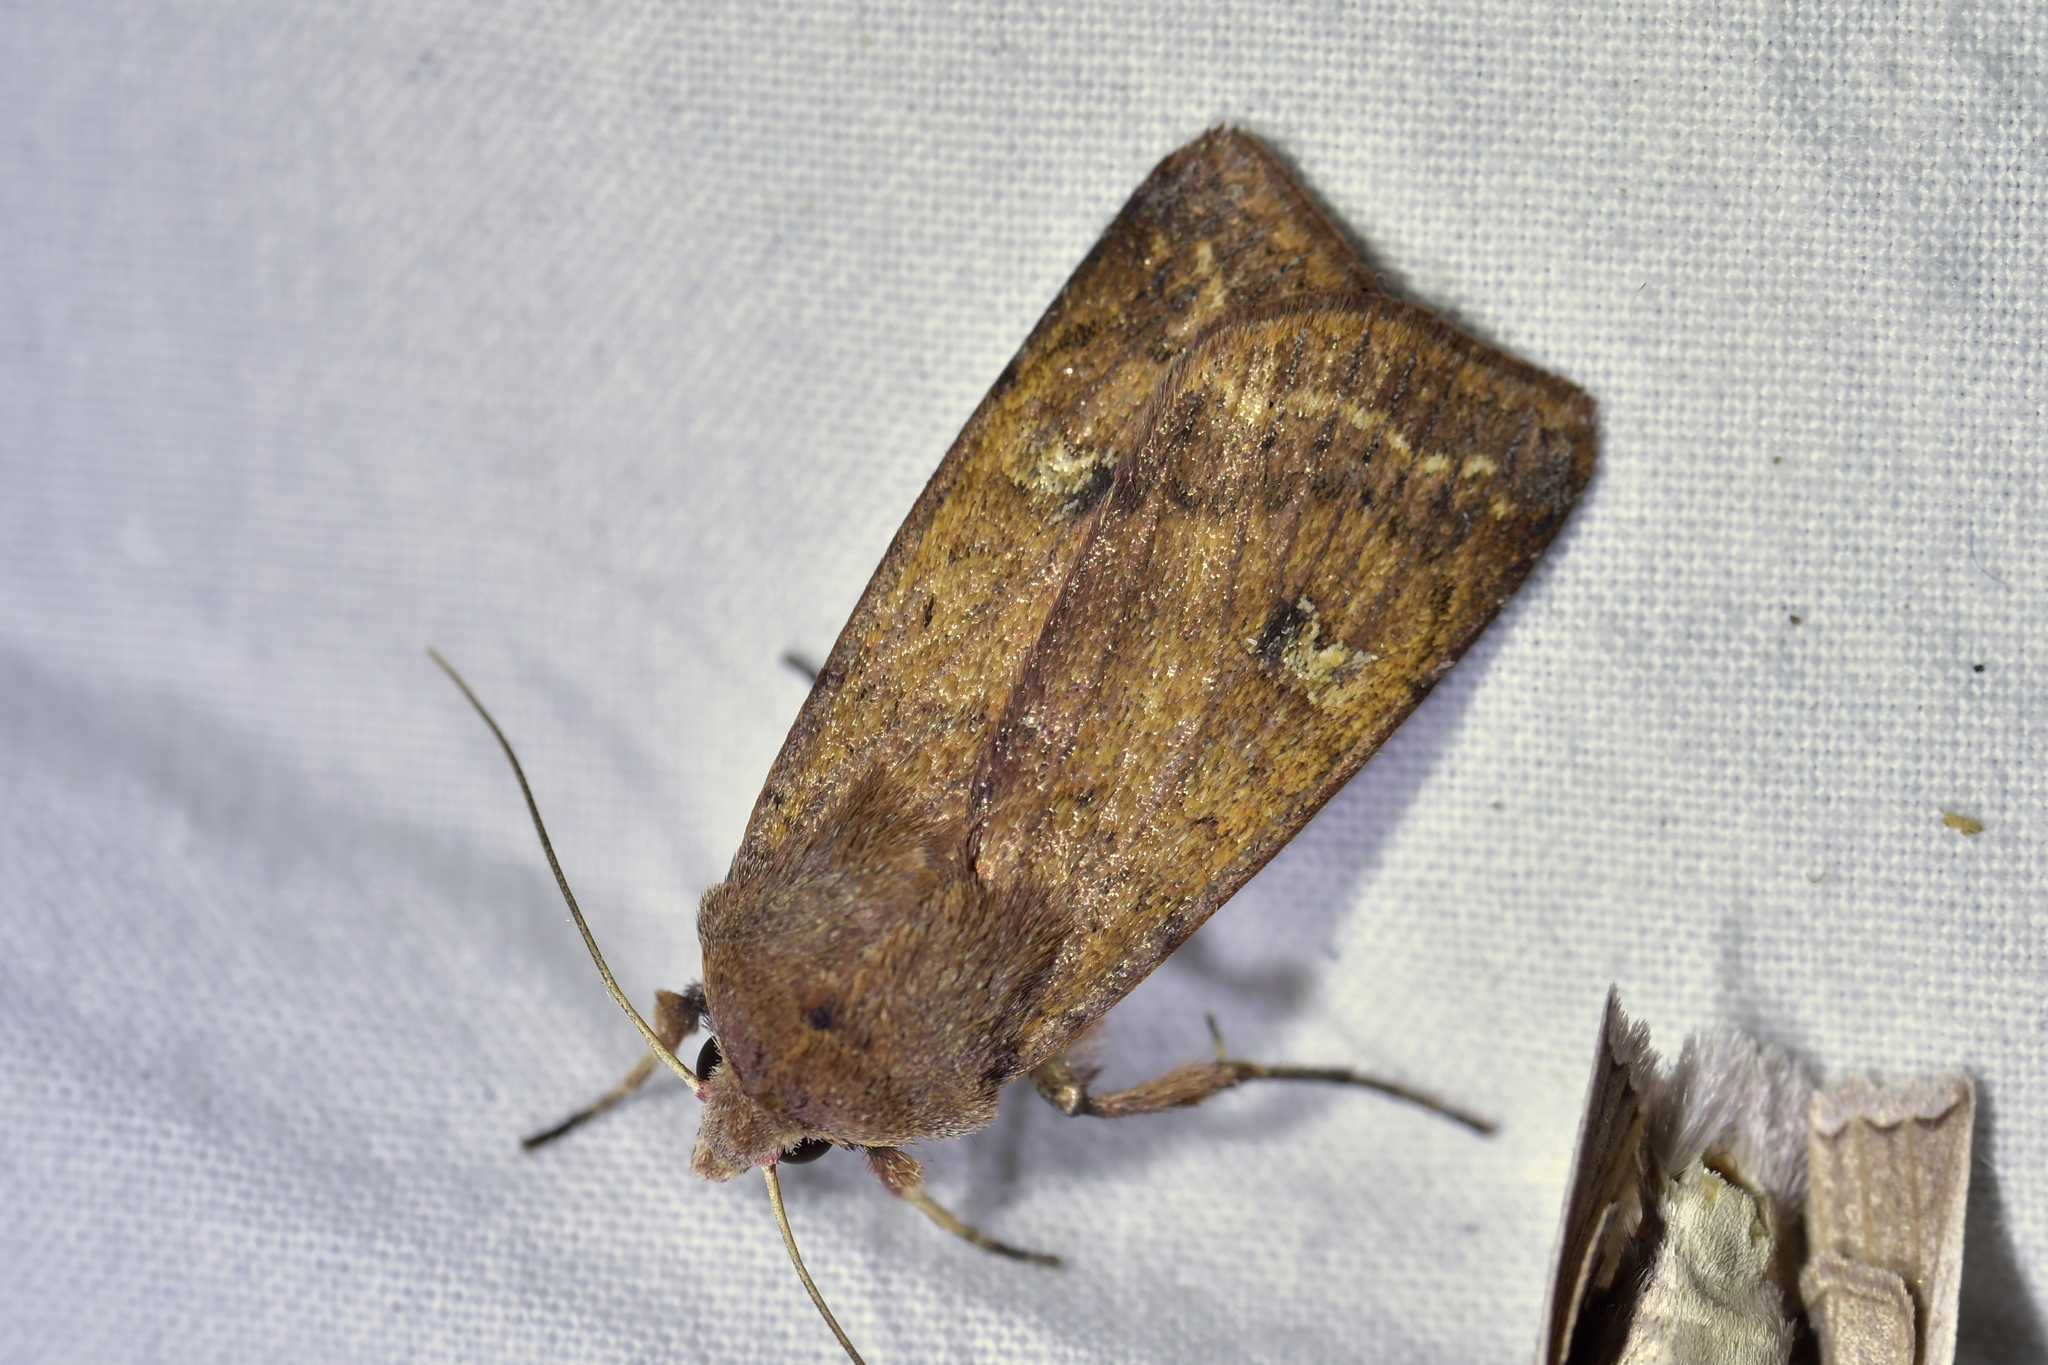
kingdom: Animalia
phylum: Arthropoda
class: Insecta
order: Lepidoptera
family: Noctuidae
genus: Diarsia
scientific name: Diarsia intermixta
